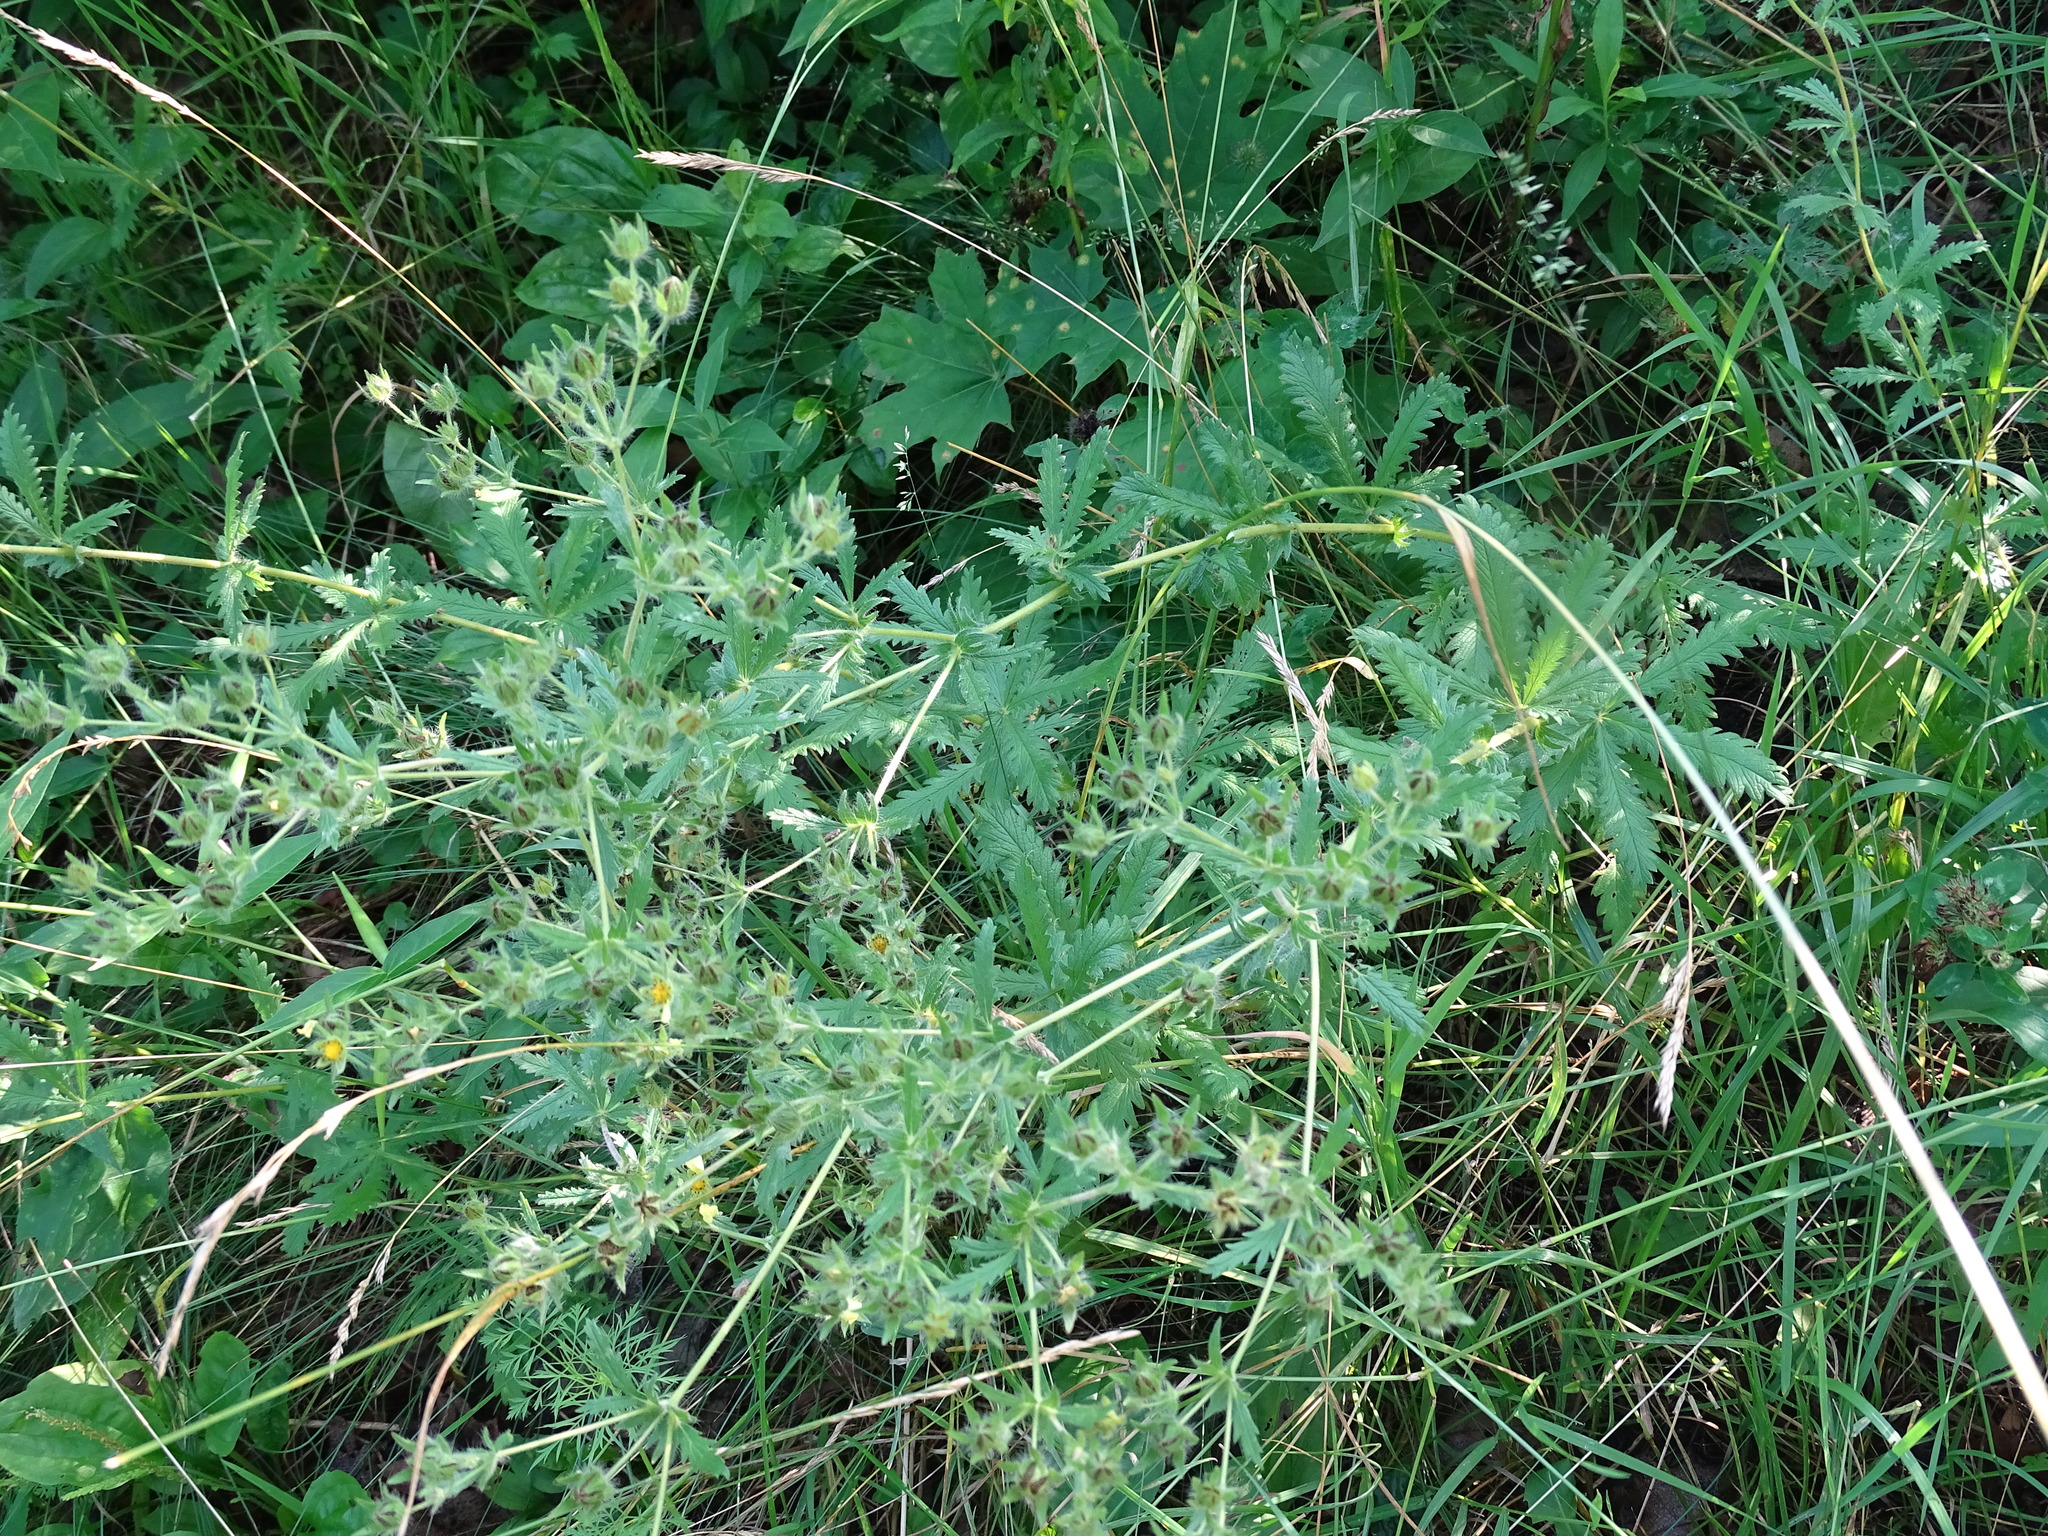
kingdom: Plantae
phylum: Tracheophyta
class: Magnoliopsida
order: Rosales
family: Rosaceae
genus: Potentilla
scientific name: Potentilla recta
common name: Sulphur cinquefoil
